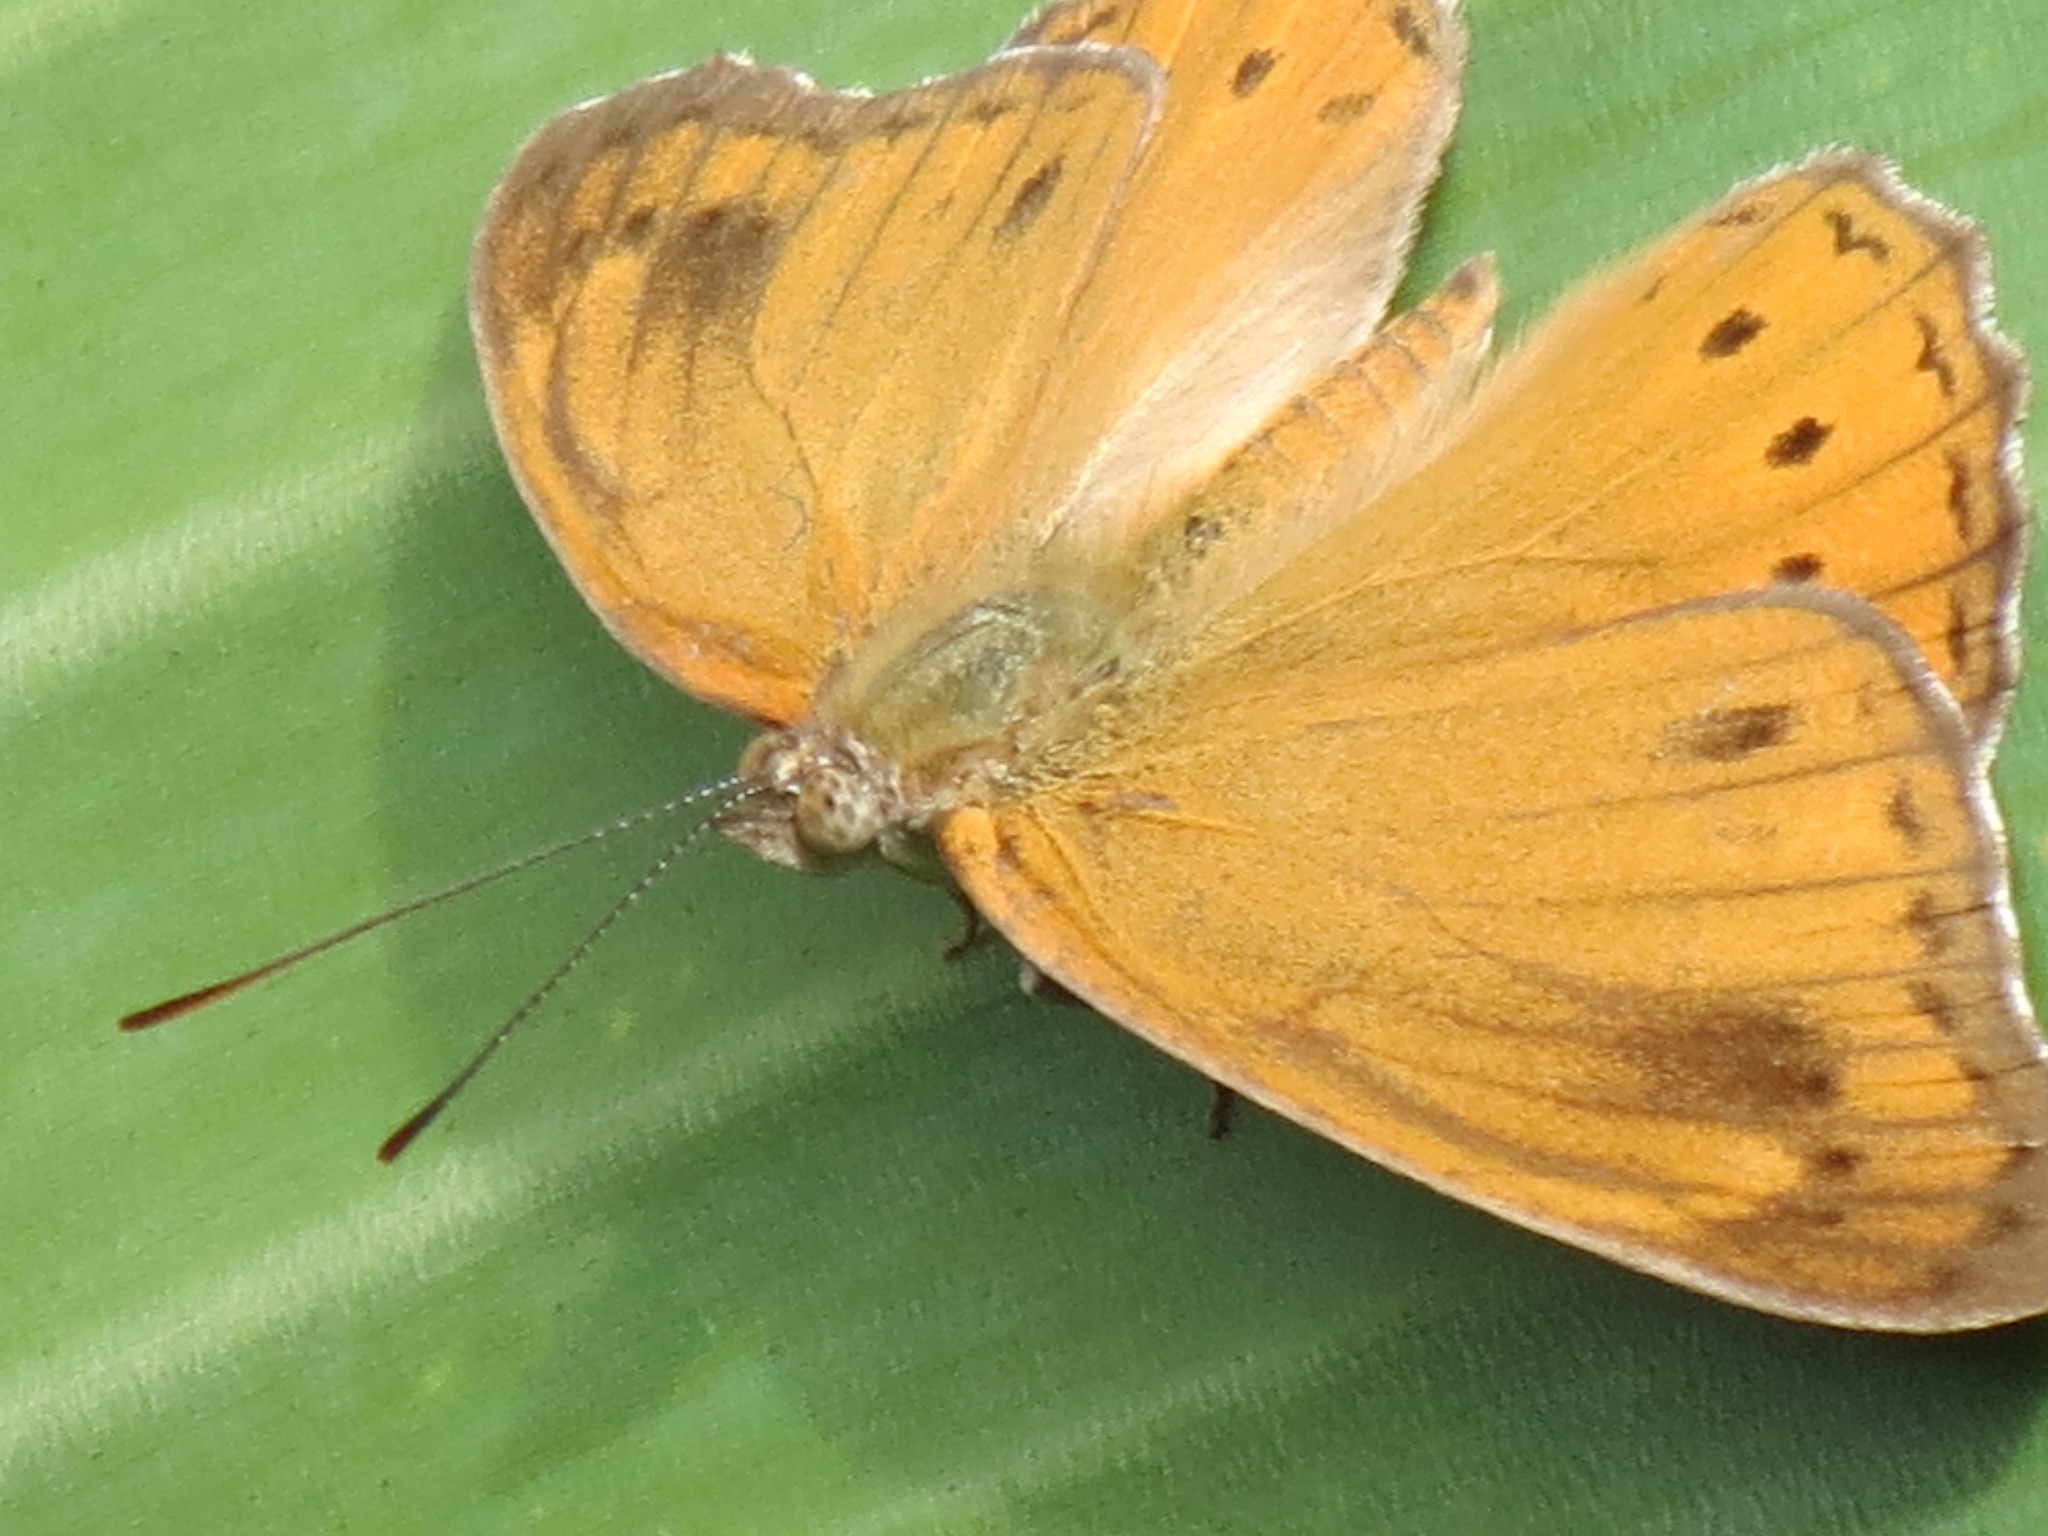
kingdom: Animalia
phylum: Arthropoda
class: Insecta
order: Lepidoptera
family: Nymphalidae
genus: Sallya
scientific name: Sallya natalensis
